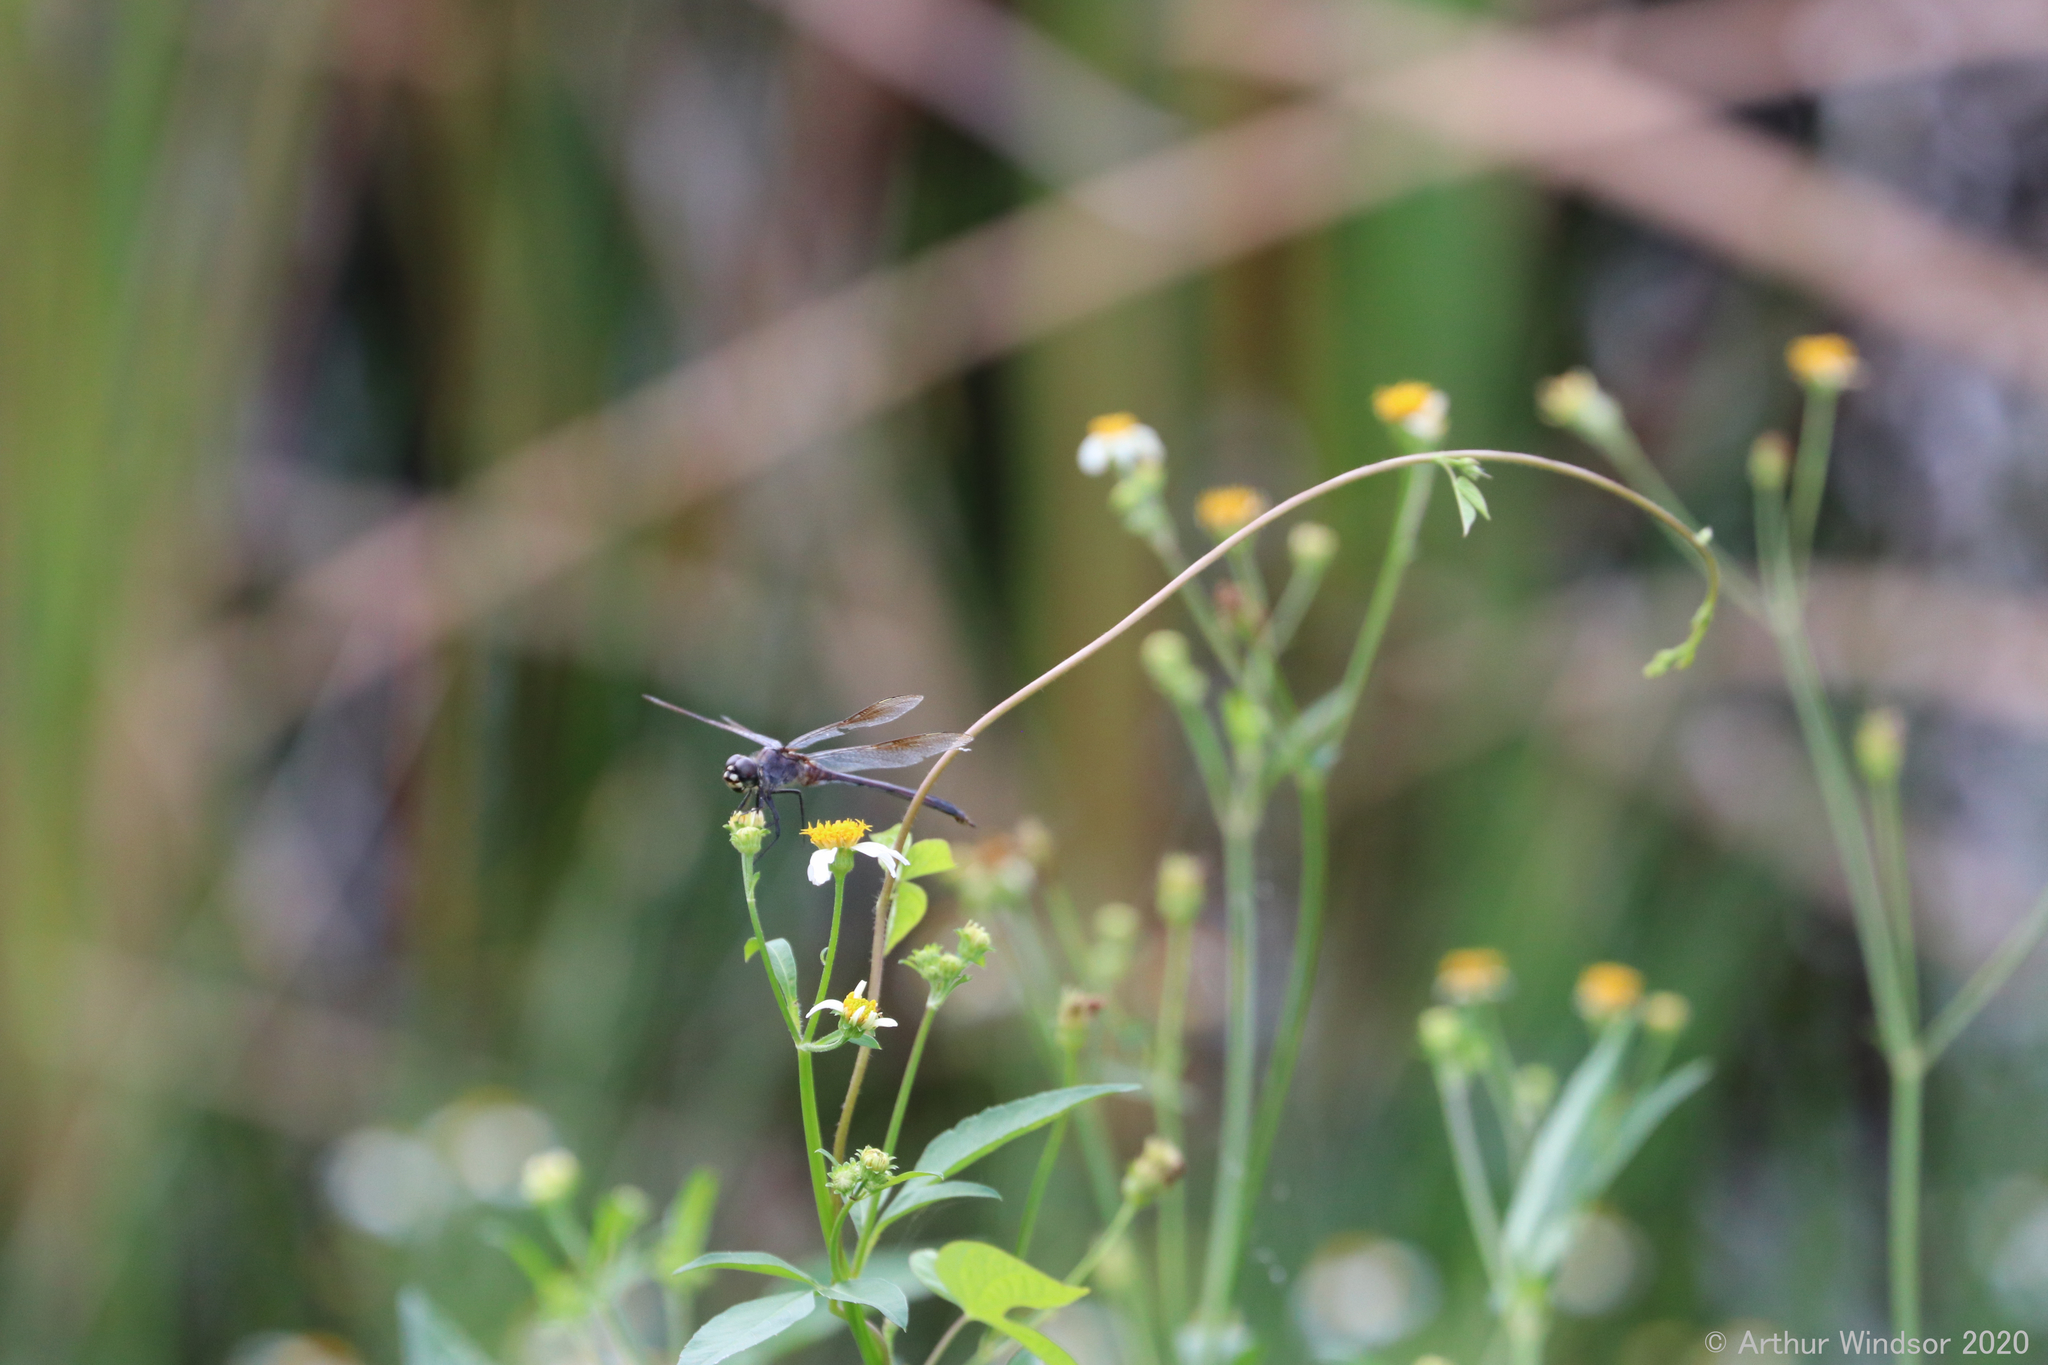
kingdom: Animalia
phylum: Arthropoda
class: Insecta
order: Odonata
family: Libellulidae
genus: Brachymesia
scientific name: Brachymesia gravida
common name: Four-spotted pennant
